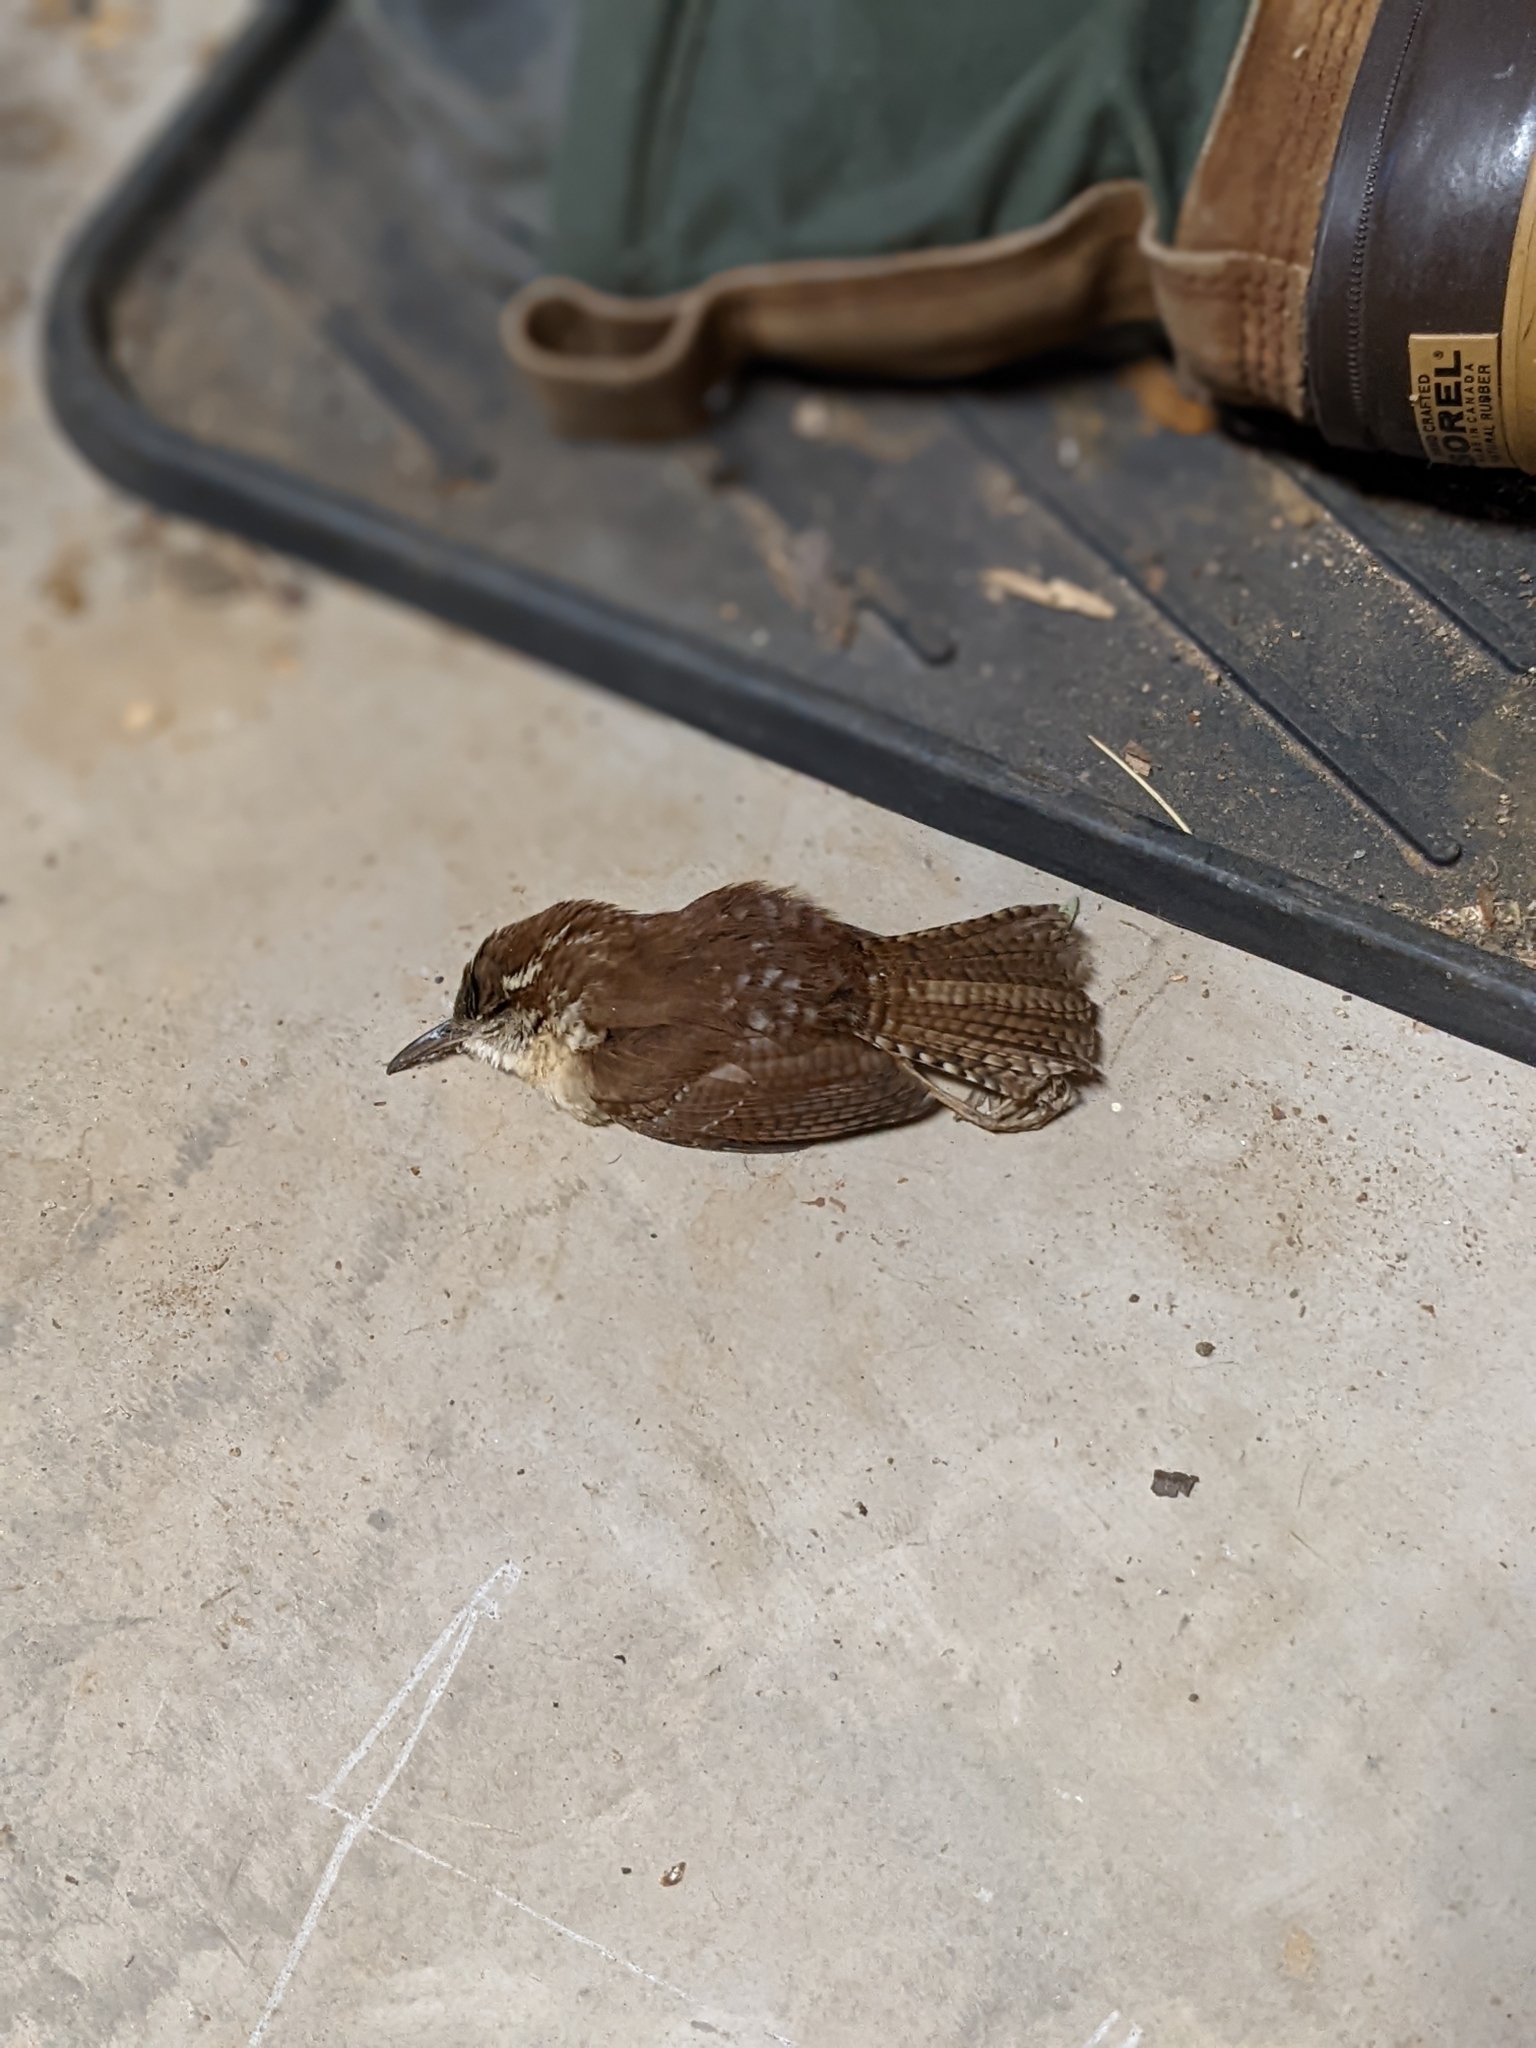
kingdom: Animalia
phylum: Chordata
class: Aves
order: Passeriformes
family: Troglodytidae
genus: Thryothorus
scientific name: Thryothorus ludovicianus
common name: Carolina wren
